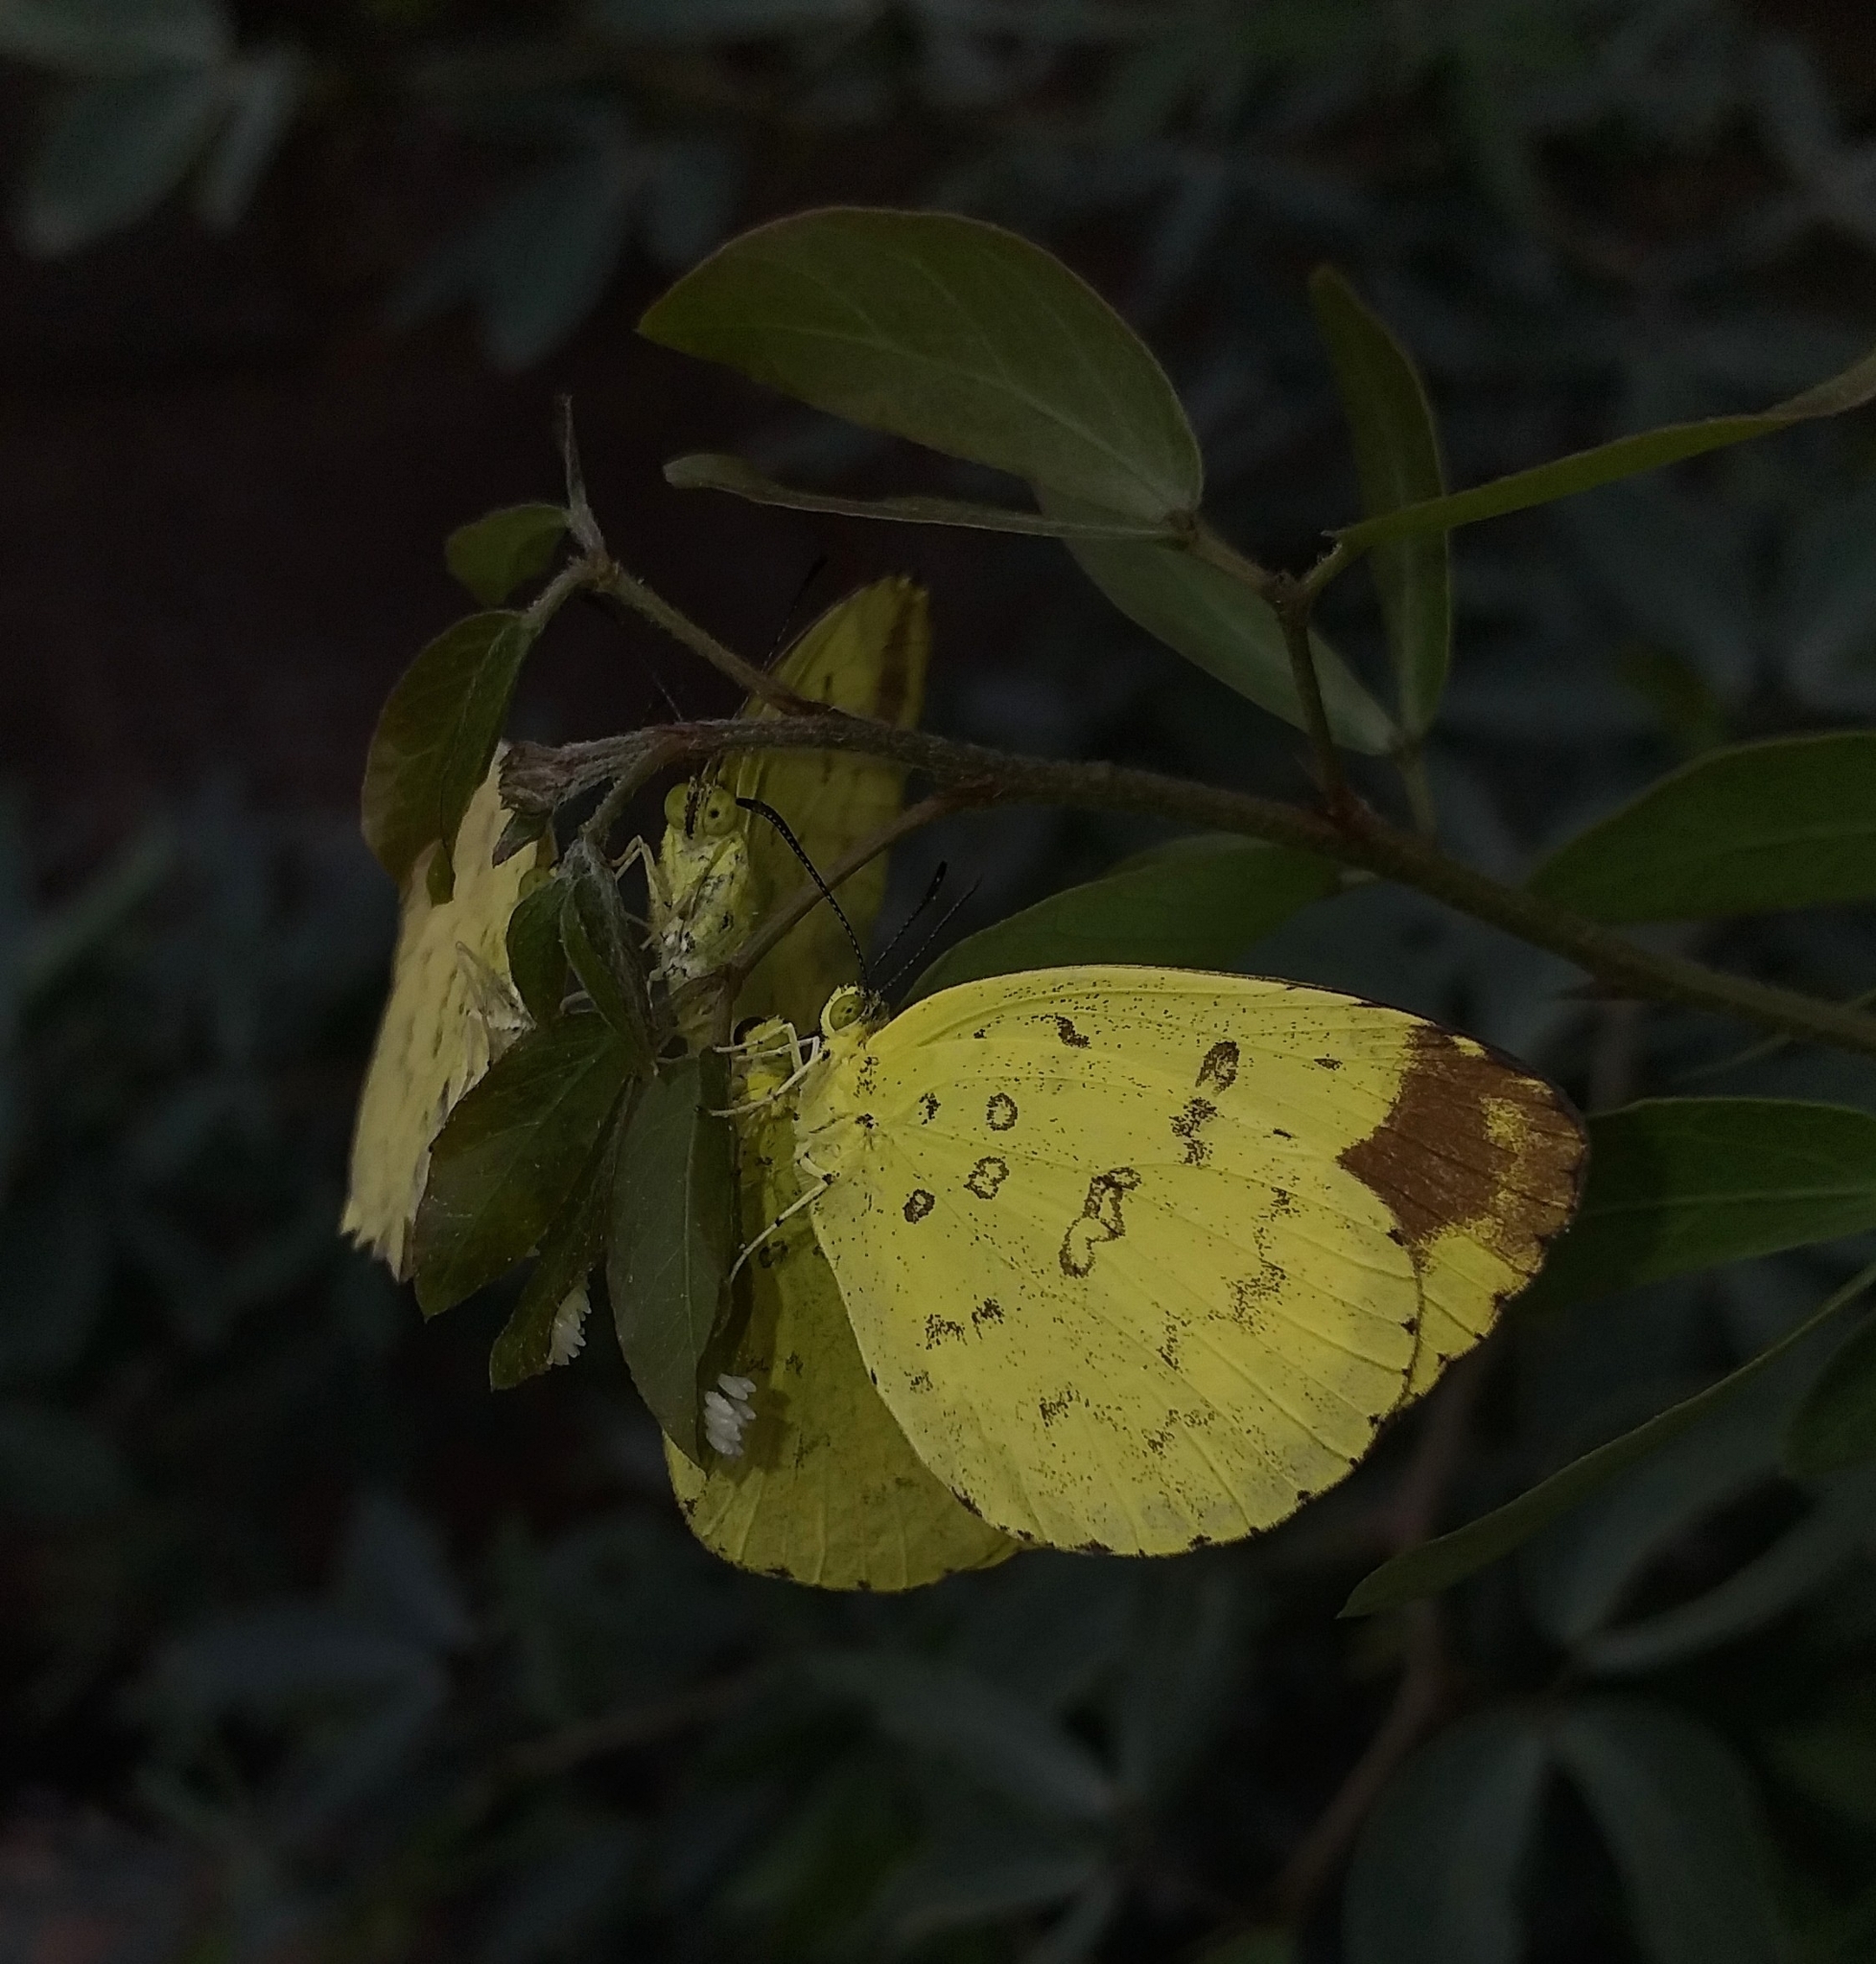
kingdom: Animalia
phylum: Arthropoda
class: Insecta
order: Lepidoptera
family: Pieridae
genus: Eurema
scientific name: Eurema blanda
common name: Three-spot grass yellow
